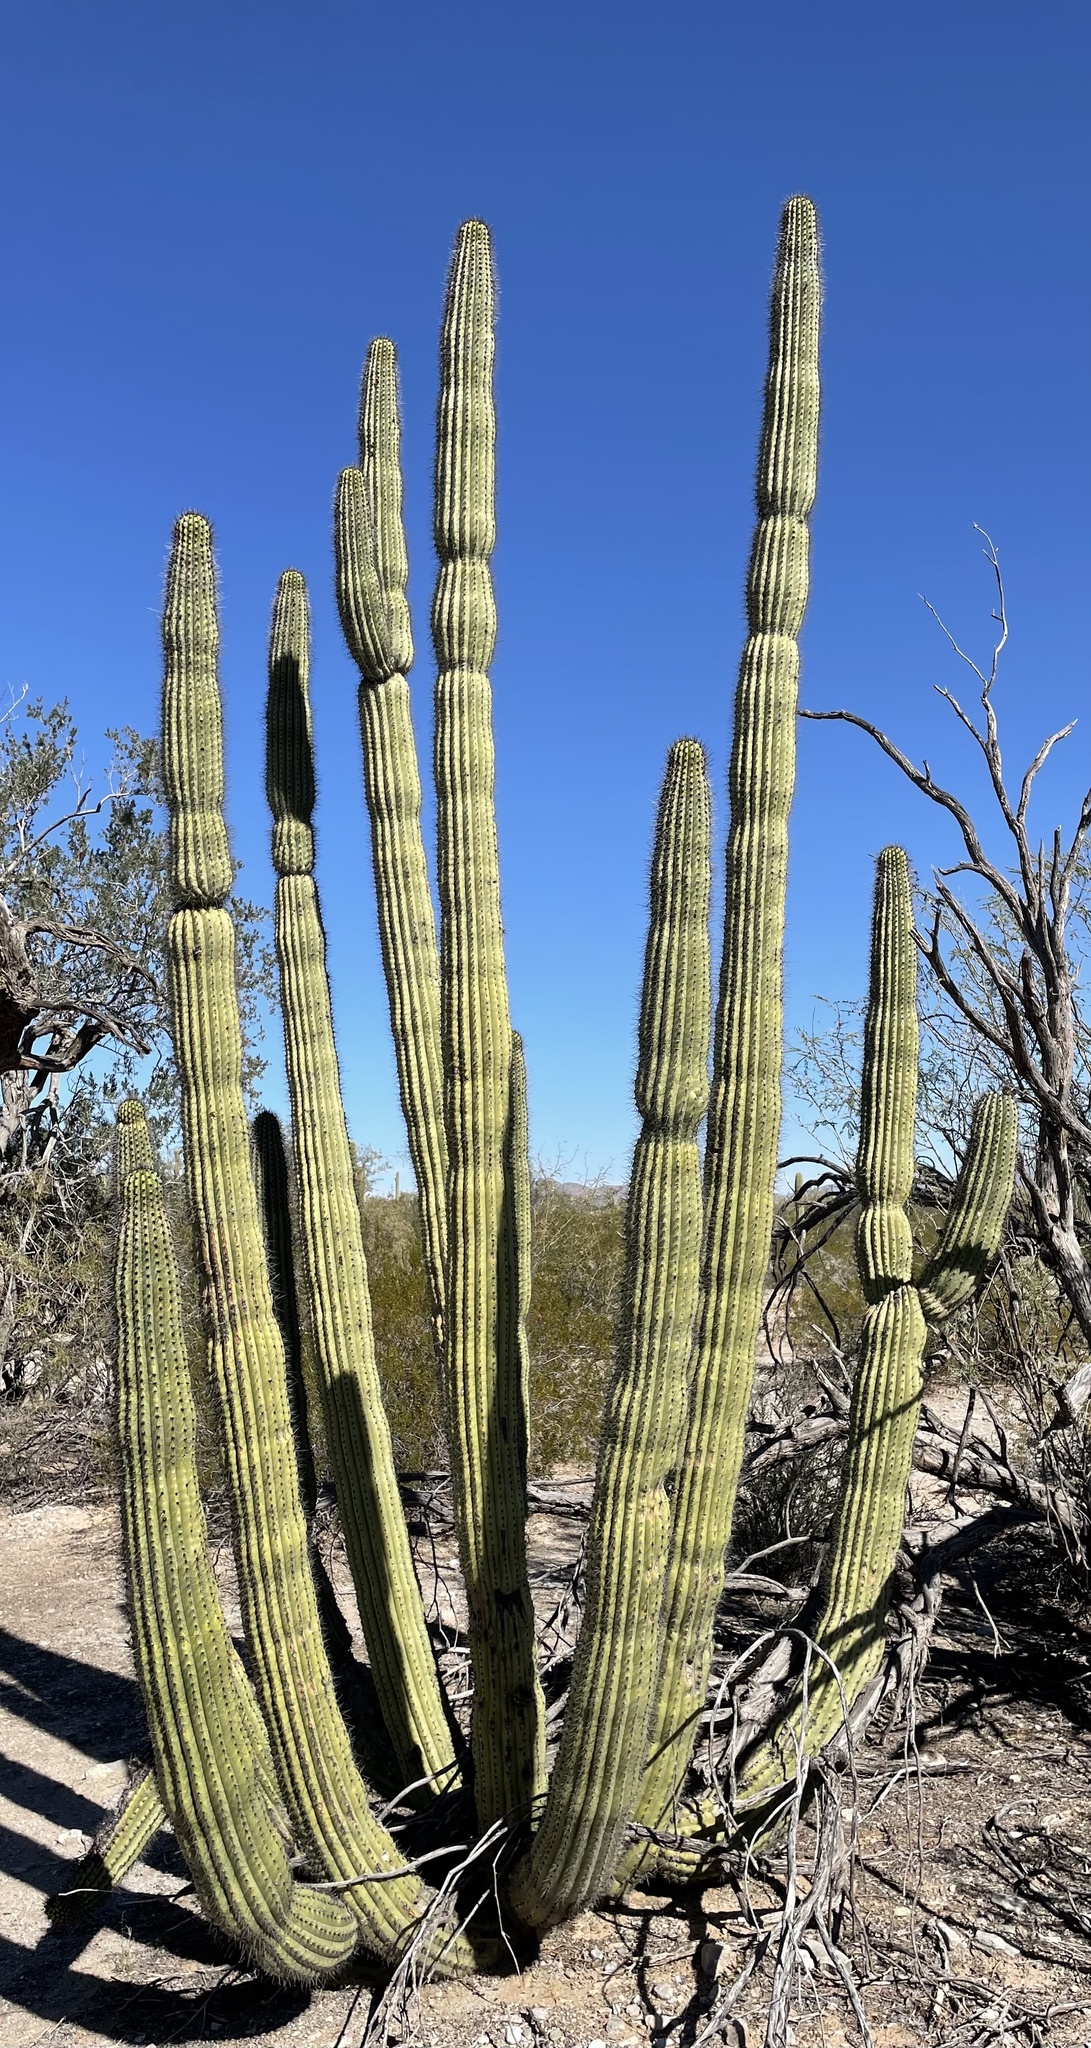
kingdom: Plantae
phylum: Tracheophyta
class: Magnoliopsida
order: Caryophyllales
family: Cactaceae
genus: Stenocereus
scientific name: Stenocereus thurberi
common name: Organ pipe cactus
